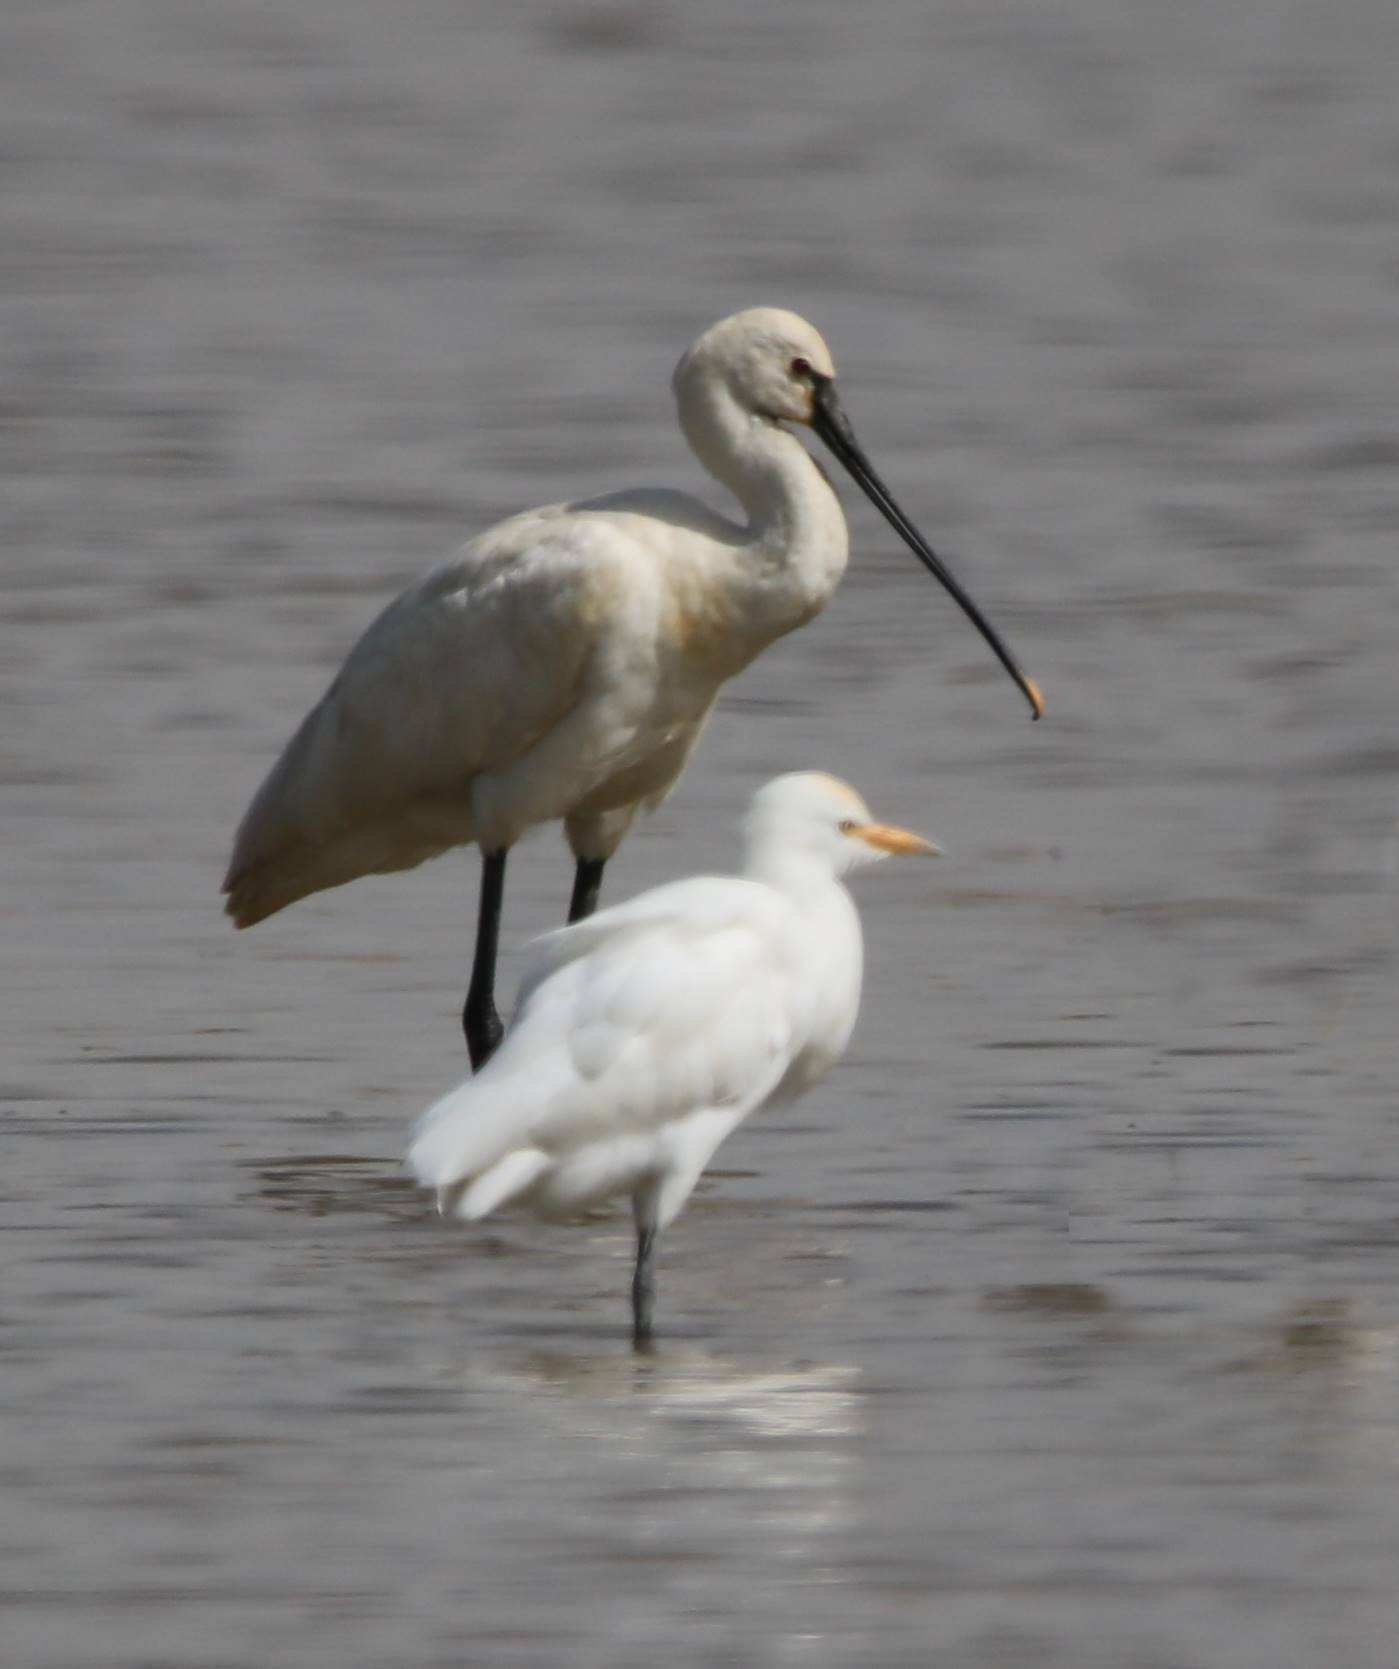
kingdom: Animalia
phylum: Chordata
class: Aves
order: Pelecaniformes
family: Threskiornithidae
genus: Platalea
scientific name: Platalea leucorodia
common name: Eurasian spoonbill
